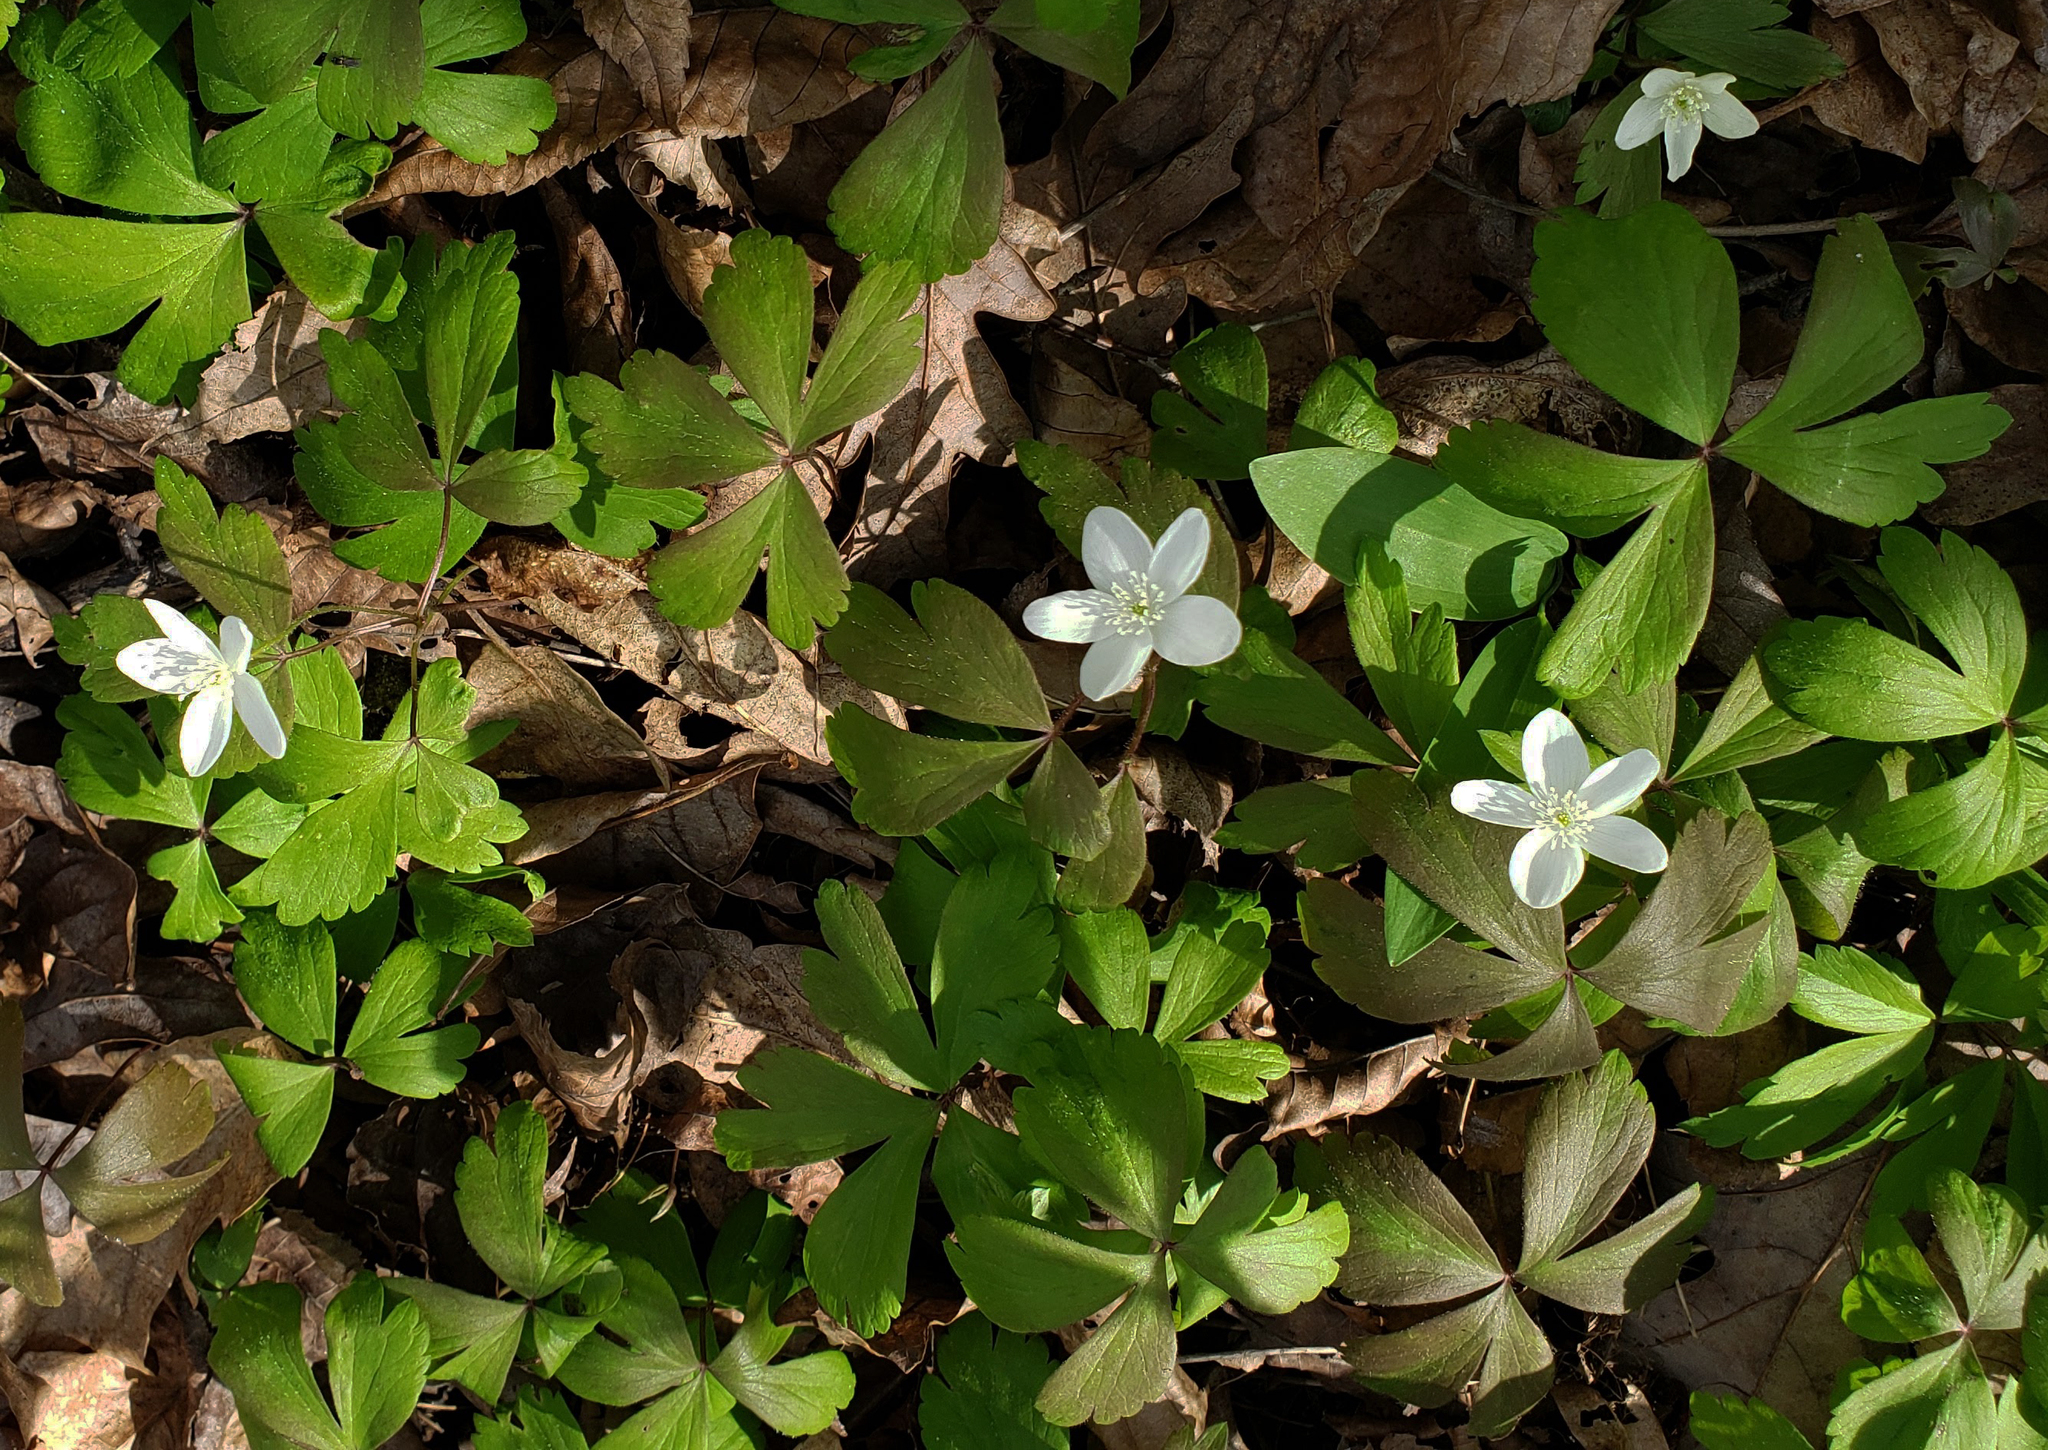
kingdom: Plantae
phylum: Tracheophyta
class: Magnoliopsida
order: Ranunculales
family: Ranunculaceae
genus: Anemone
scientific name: Anemone quinquefolia
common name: Wood anemone
